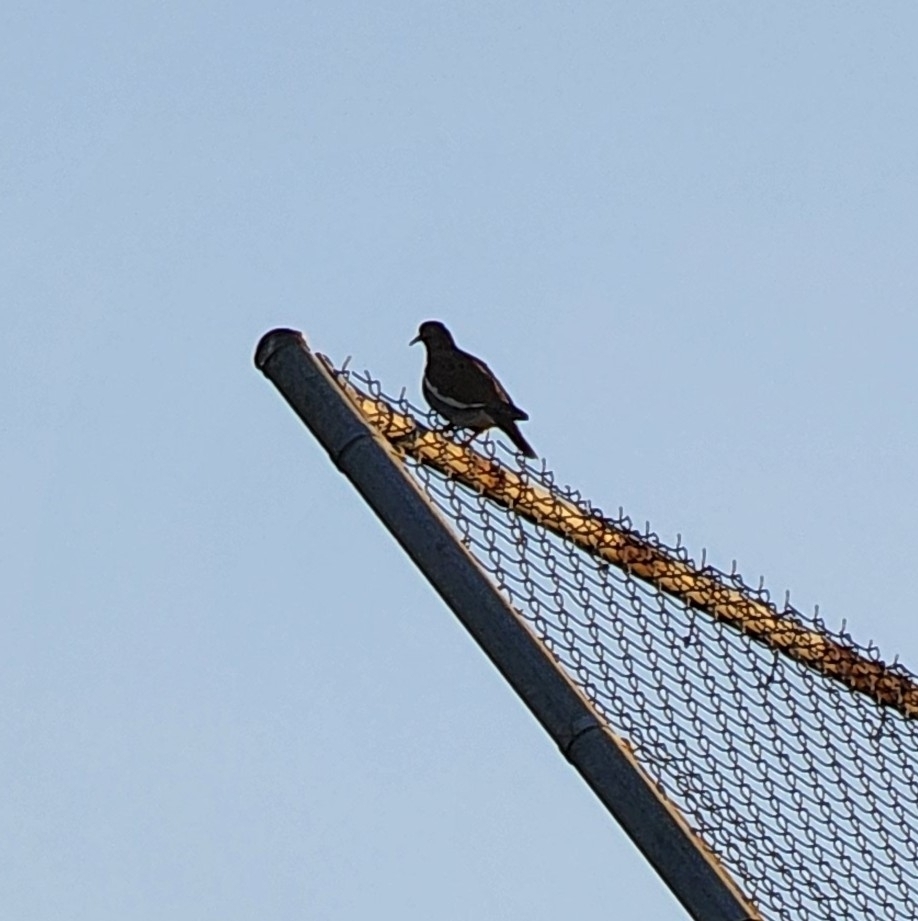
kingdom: Animalia
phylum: Chordata
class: Aves
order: Columbiformes
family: Columbidae
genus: Zenaida
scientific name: Zenaida asiatica
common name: White-winged dove
